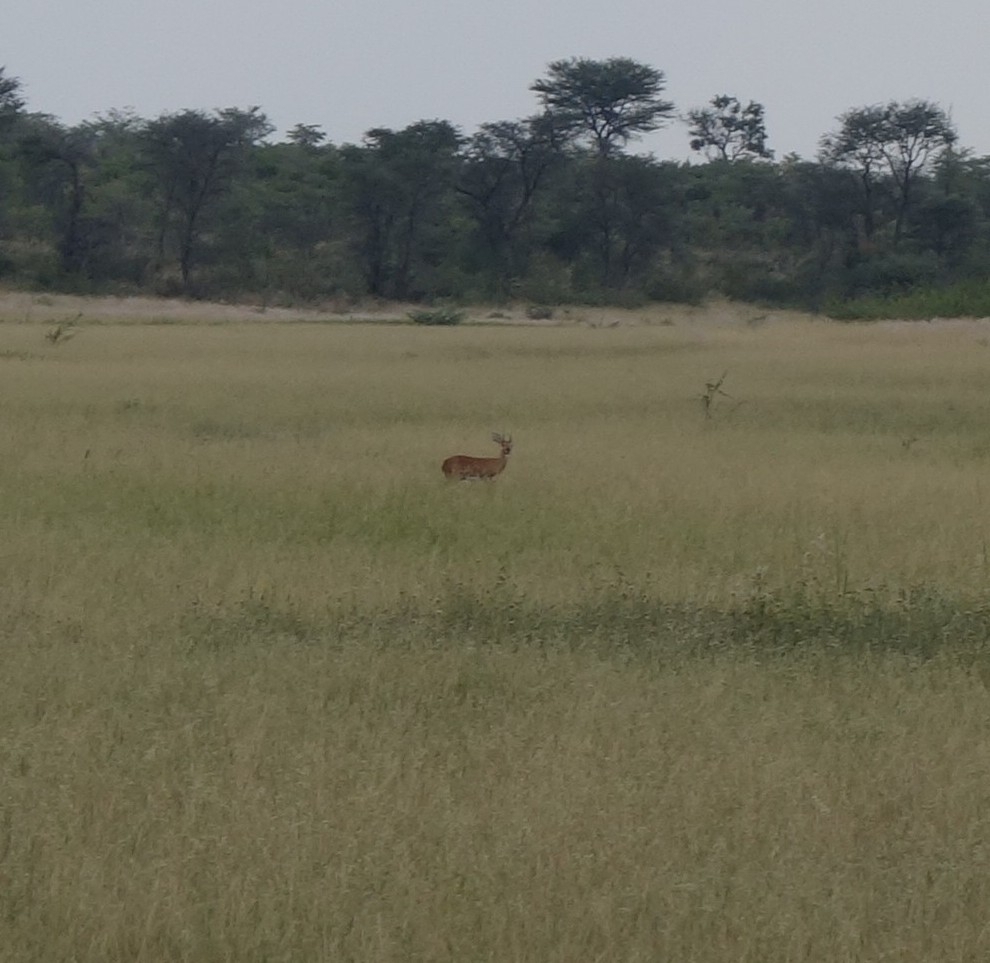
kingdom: Animalia
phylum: Chordata
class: Mammalia
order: Artiodactyla
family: Bovidae
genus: Raphicerus
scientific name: Raphicerus campestris
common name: Steenbok
